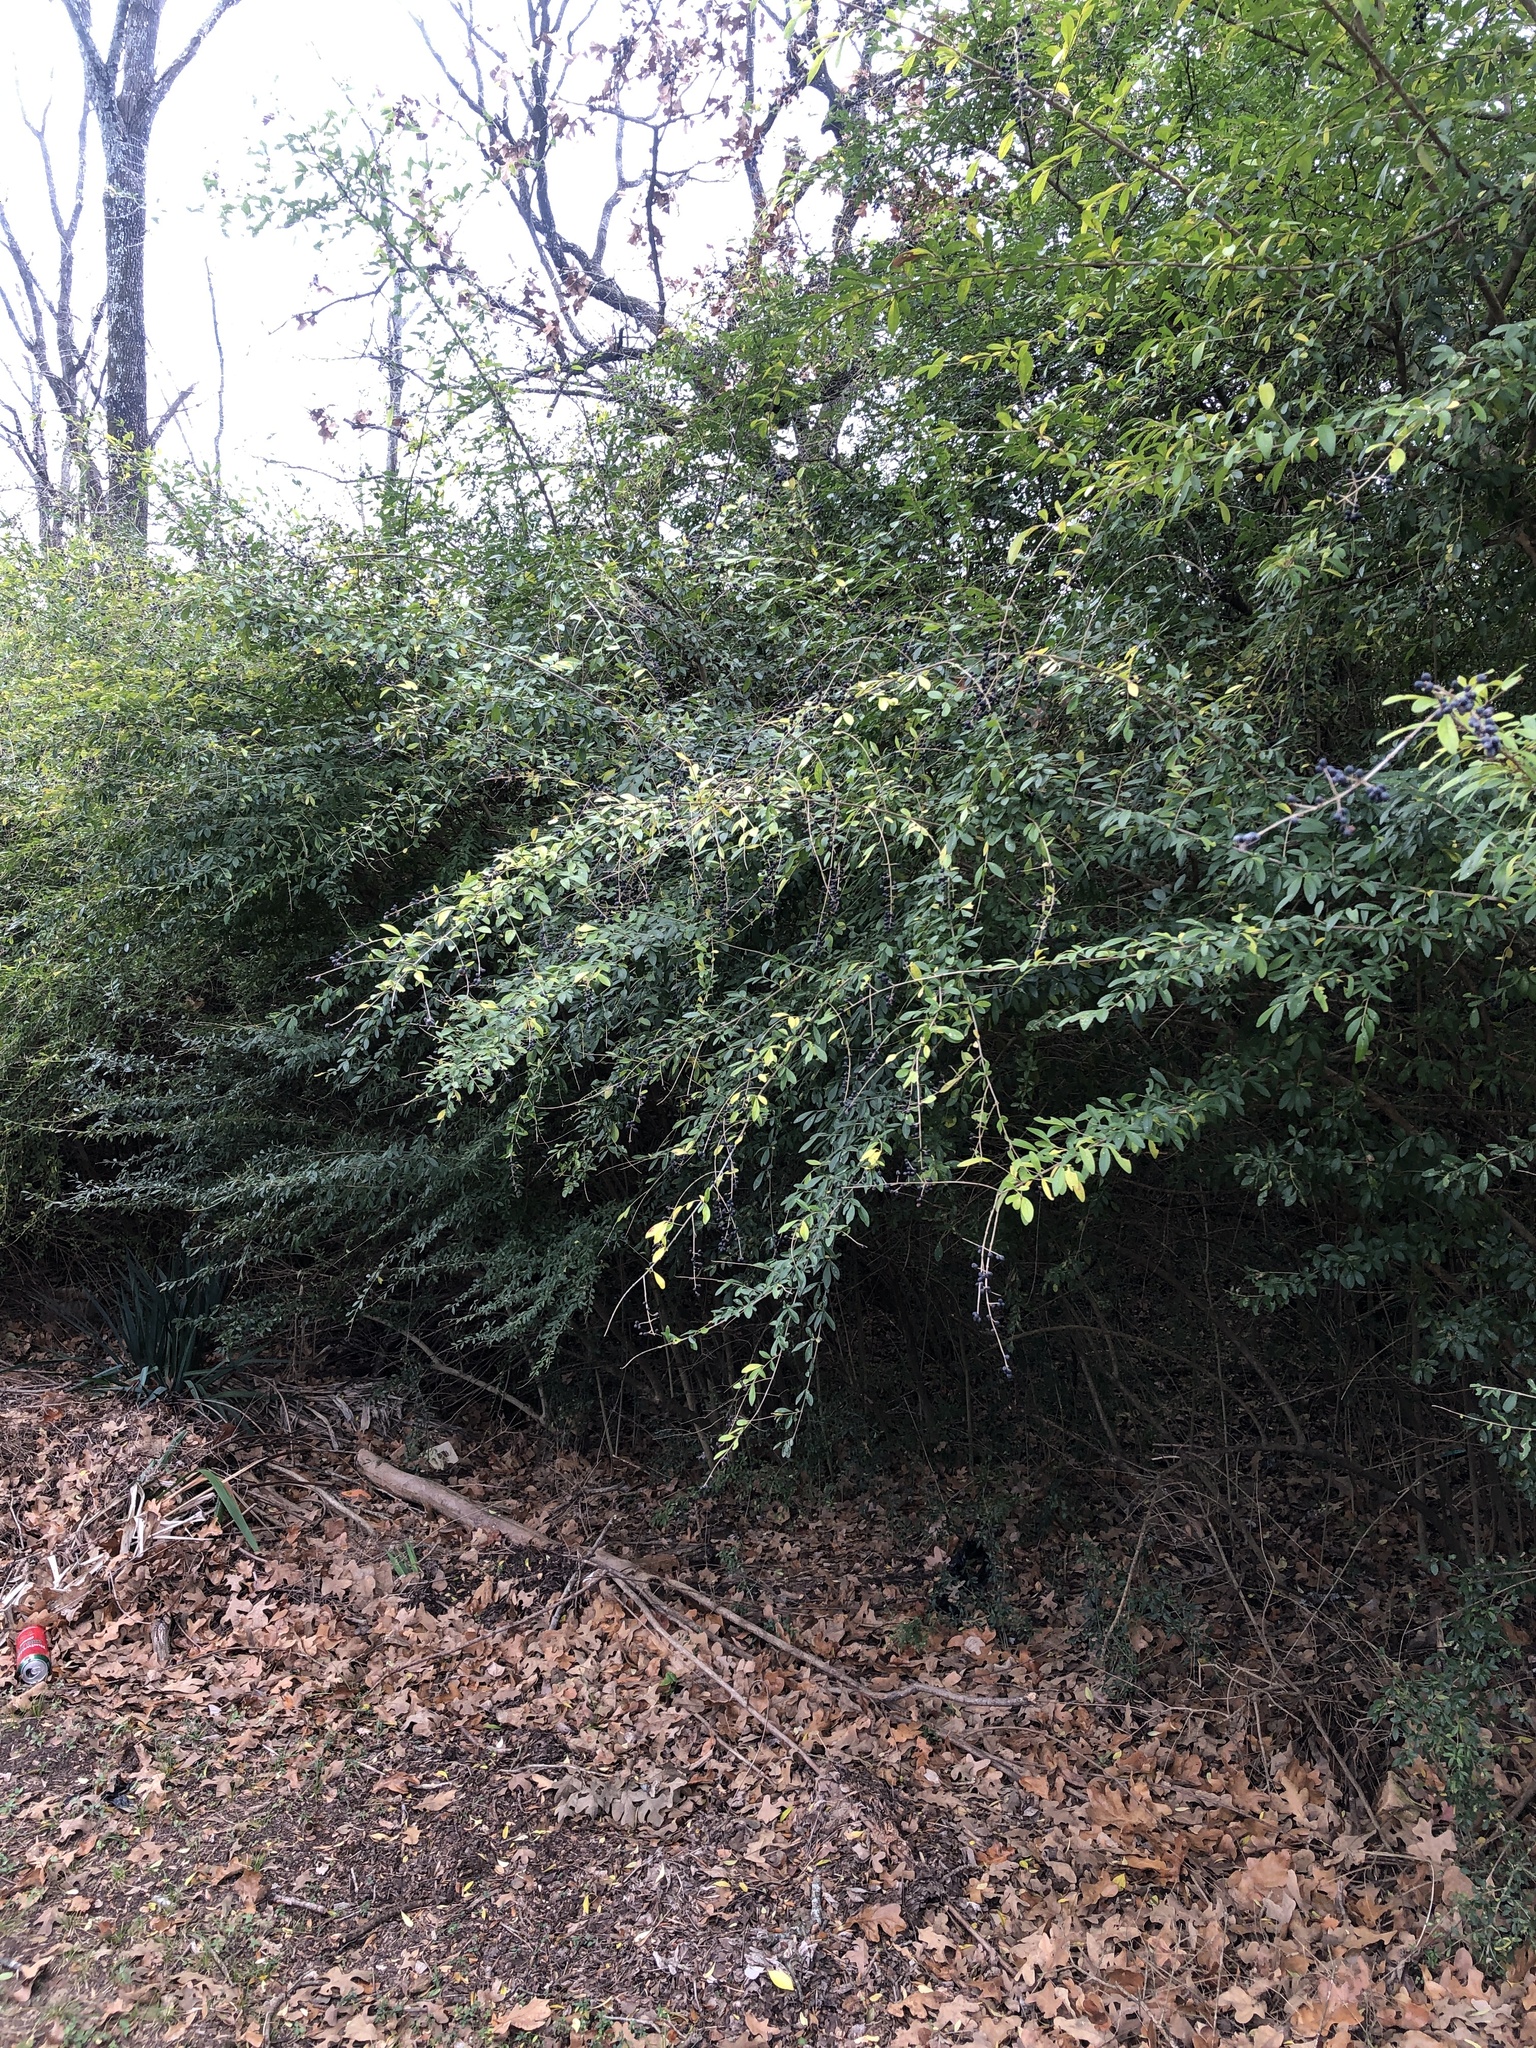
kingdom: Plantae
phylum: Tracheophyta
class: Magnoliopsida
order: Lamiales
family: Oleaceae
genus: Ligustrum
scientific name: Ligustrum quihoui
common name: Waxyleaf privet
